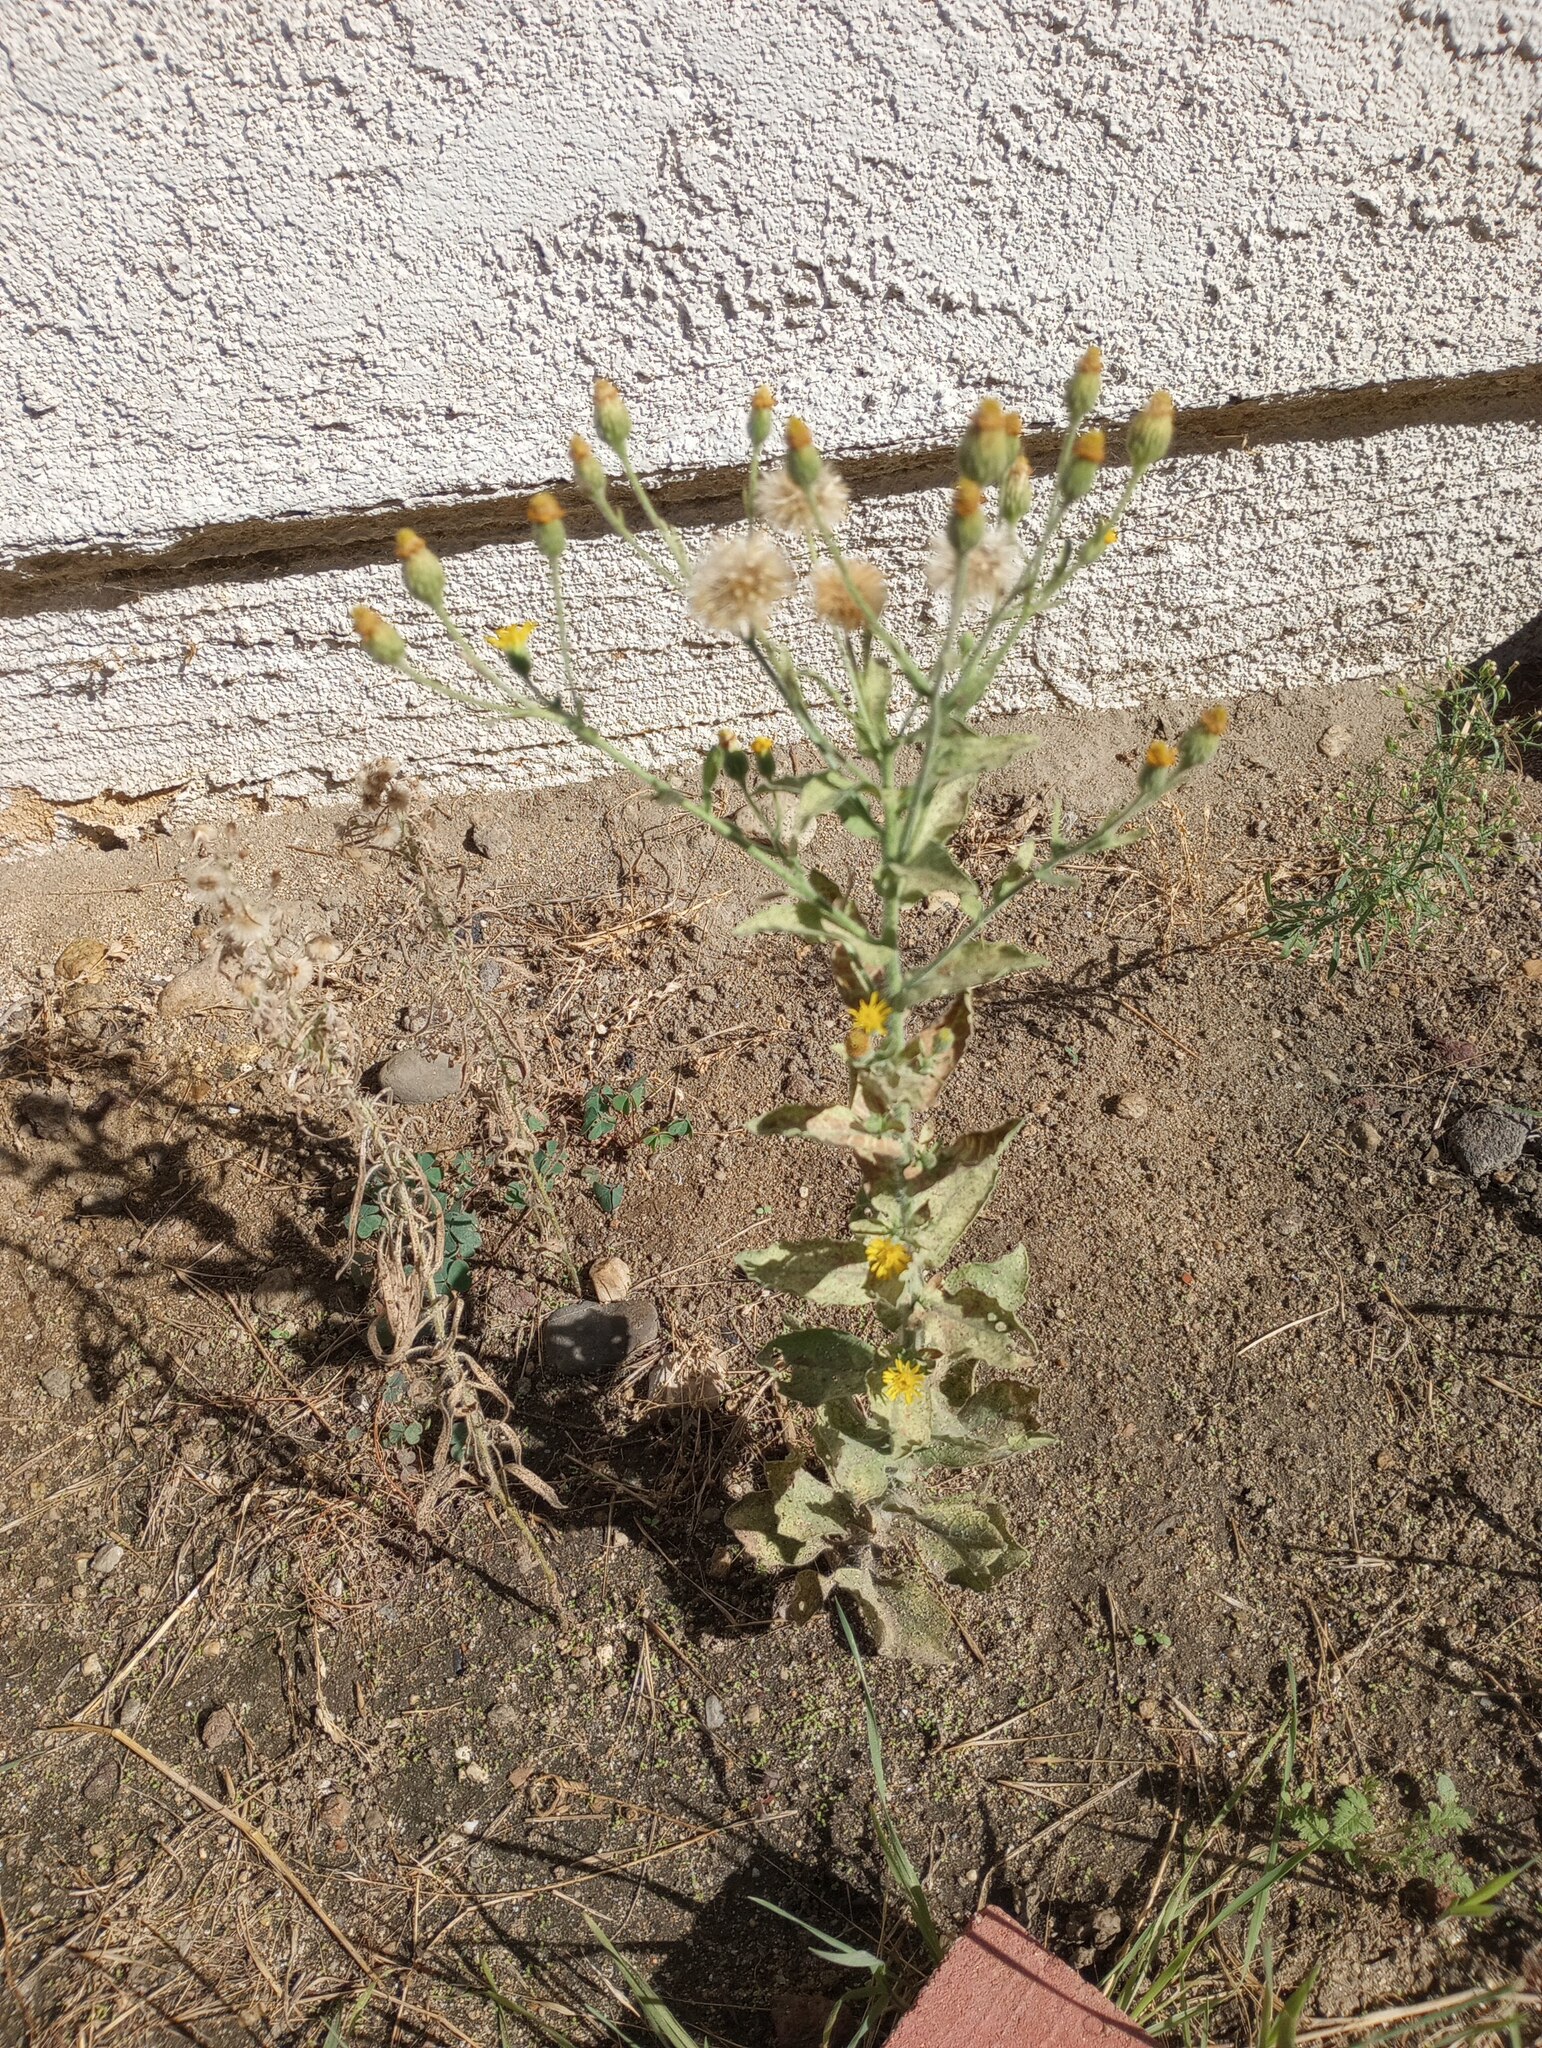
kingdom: Plantae
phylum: Tracheophyta
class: Magnoliopsida
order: Asterales
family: Asteraceae
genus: Heterotheca
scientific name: Heterotheca grandiflora
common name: Telegraphweed
